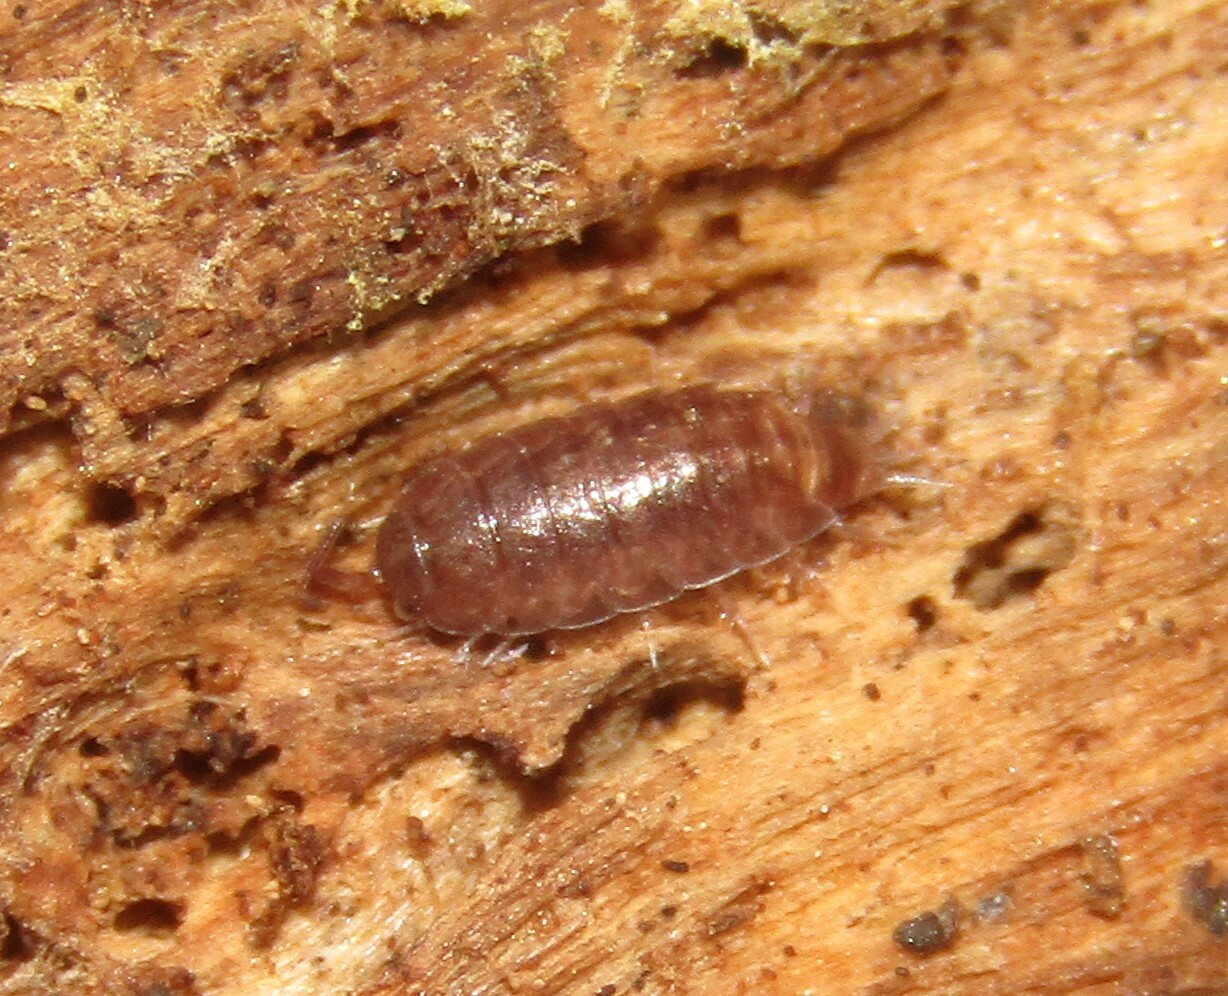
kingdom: Animalia
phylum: Arthropoda
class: Malacostraca
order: Isopoda
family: Trichoniscidae
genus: Hyloniscus
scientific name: Hyloniscus riparius
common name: Isopod
